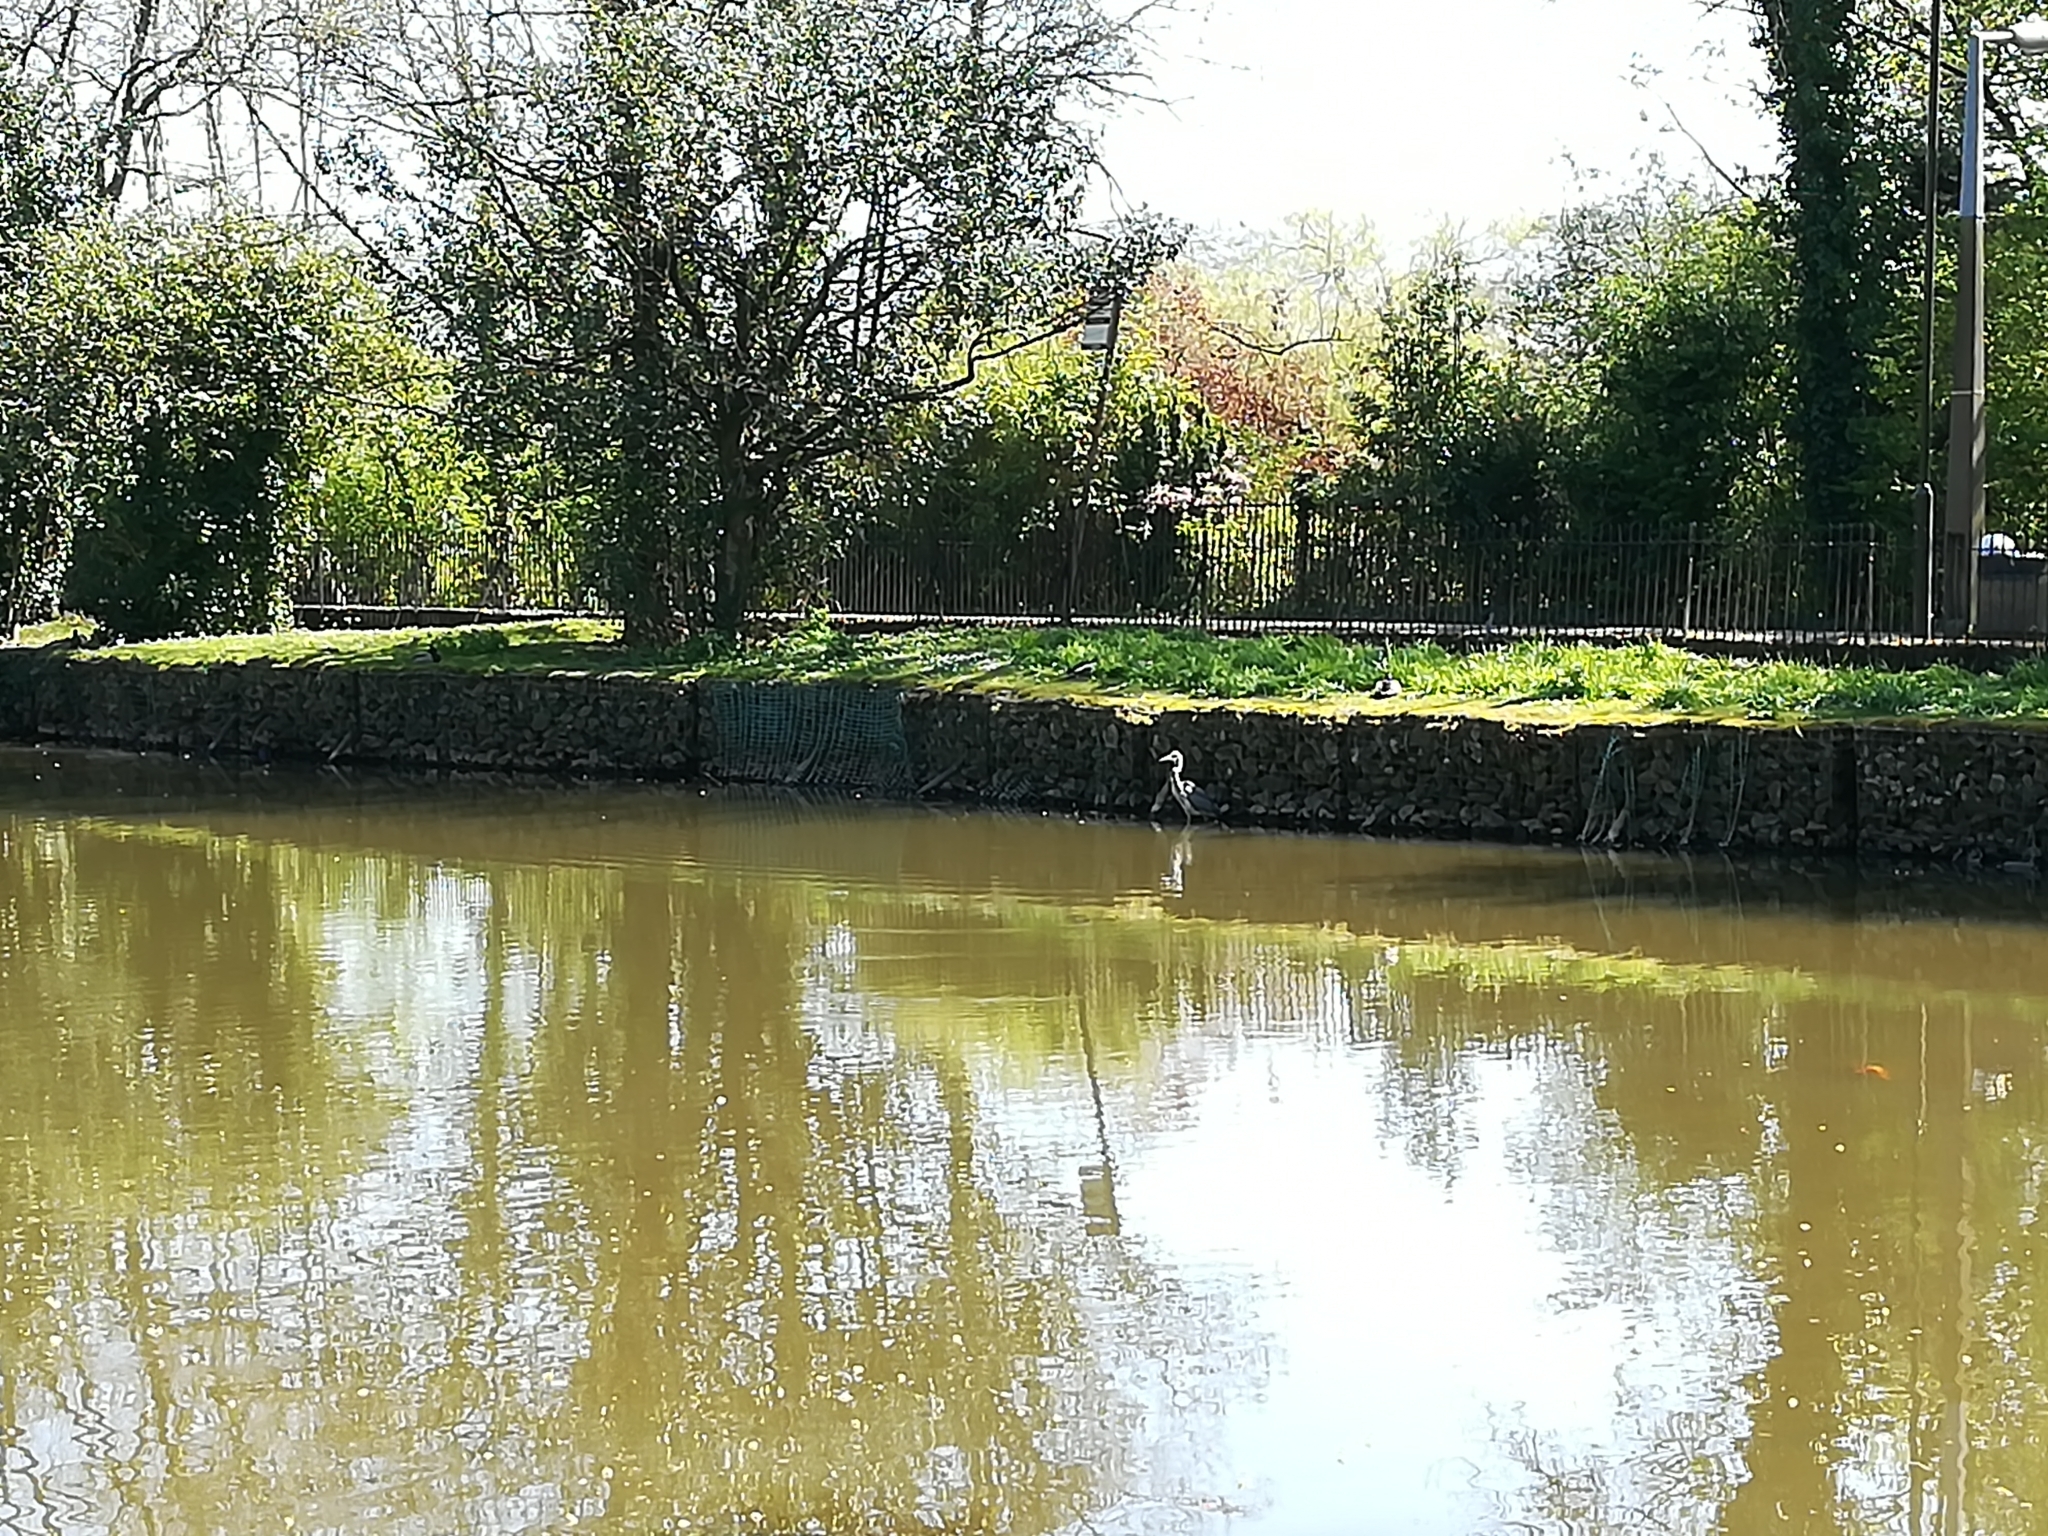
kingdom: Animalia
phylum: Chordata
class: Aves
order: Pelecaniformes
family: Ardeidae
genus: Ardea
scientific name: Ardea cinerea
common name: Grey heron
